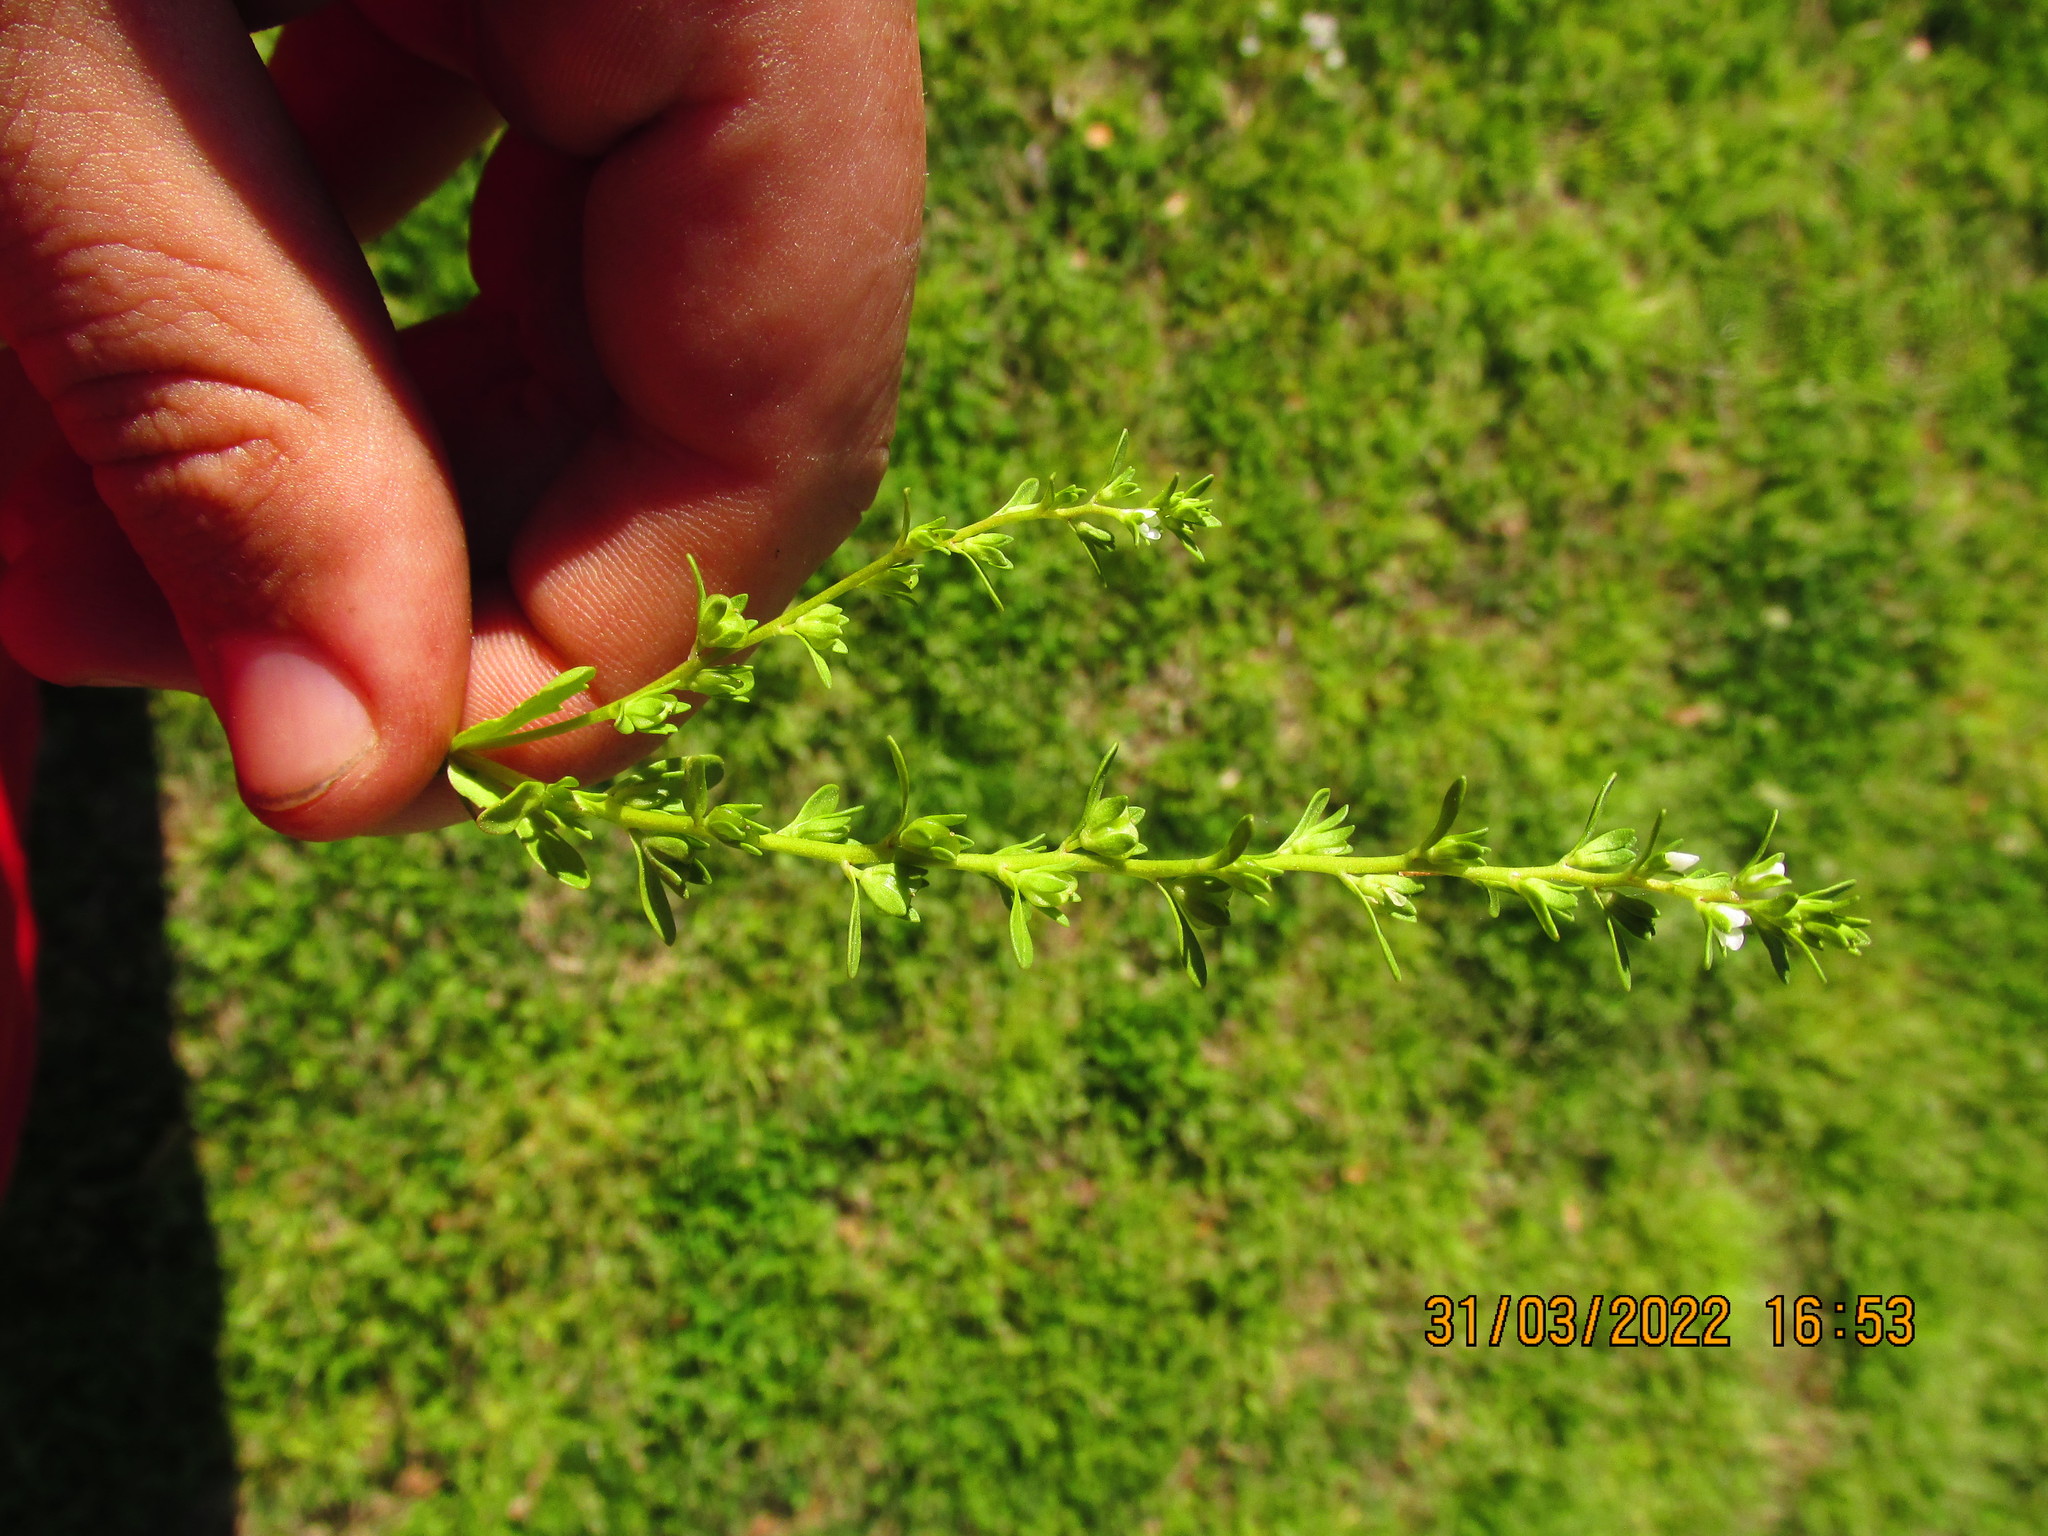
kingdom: Plantae
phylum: Tracheophyta
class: Magnoliopsida
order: Lamiales
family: Plantaginaceae
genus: Veronica
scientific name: Veronica peregrina
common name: Neckweed
